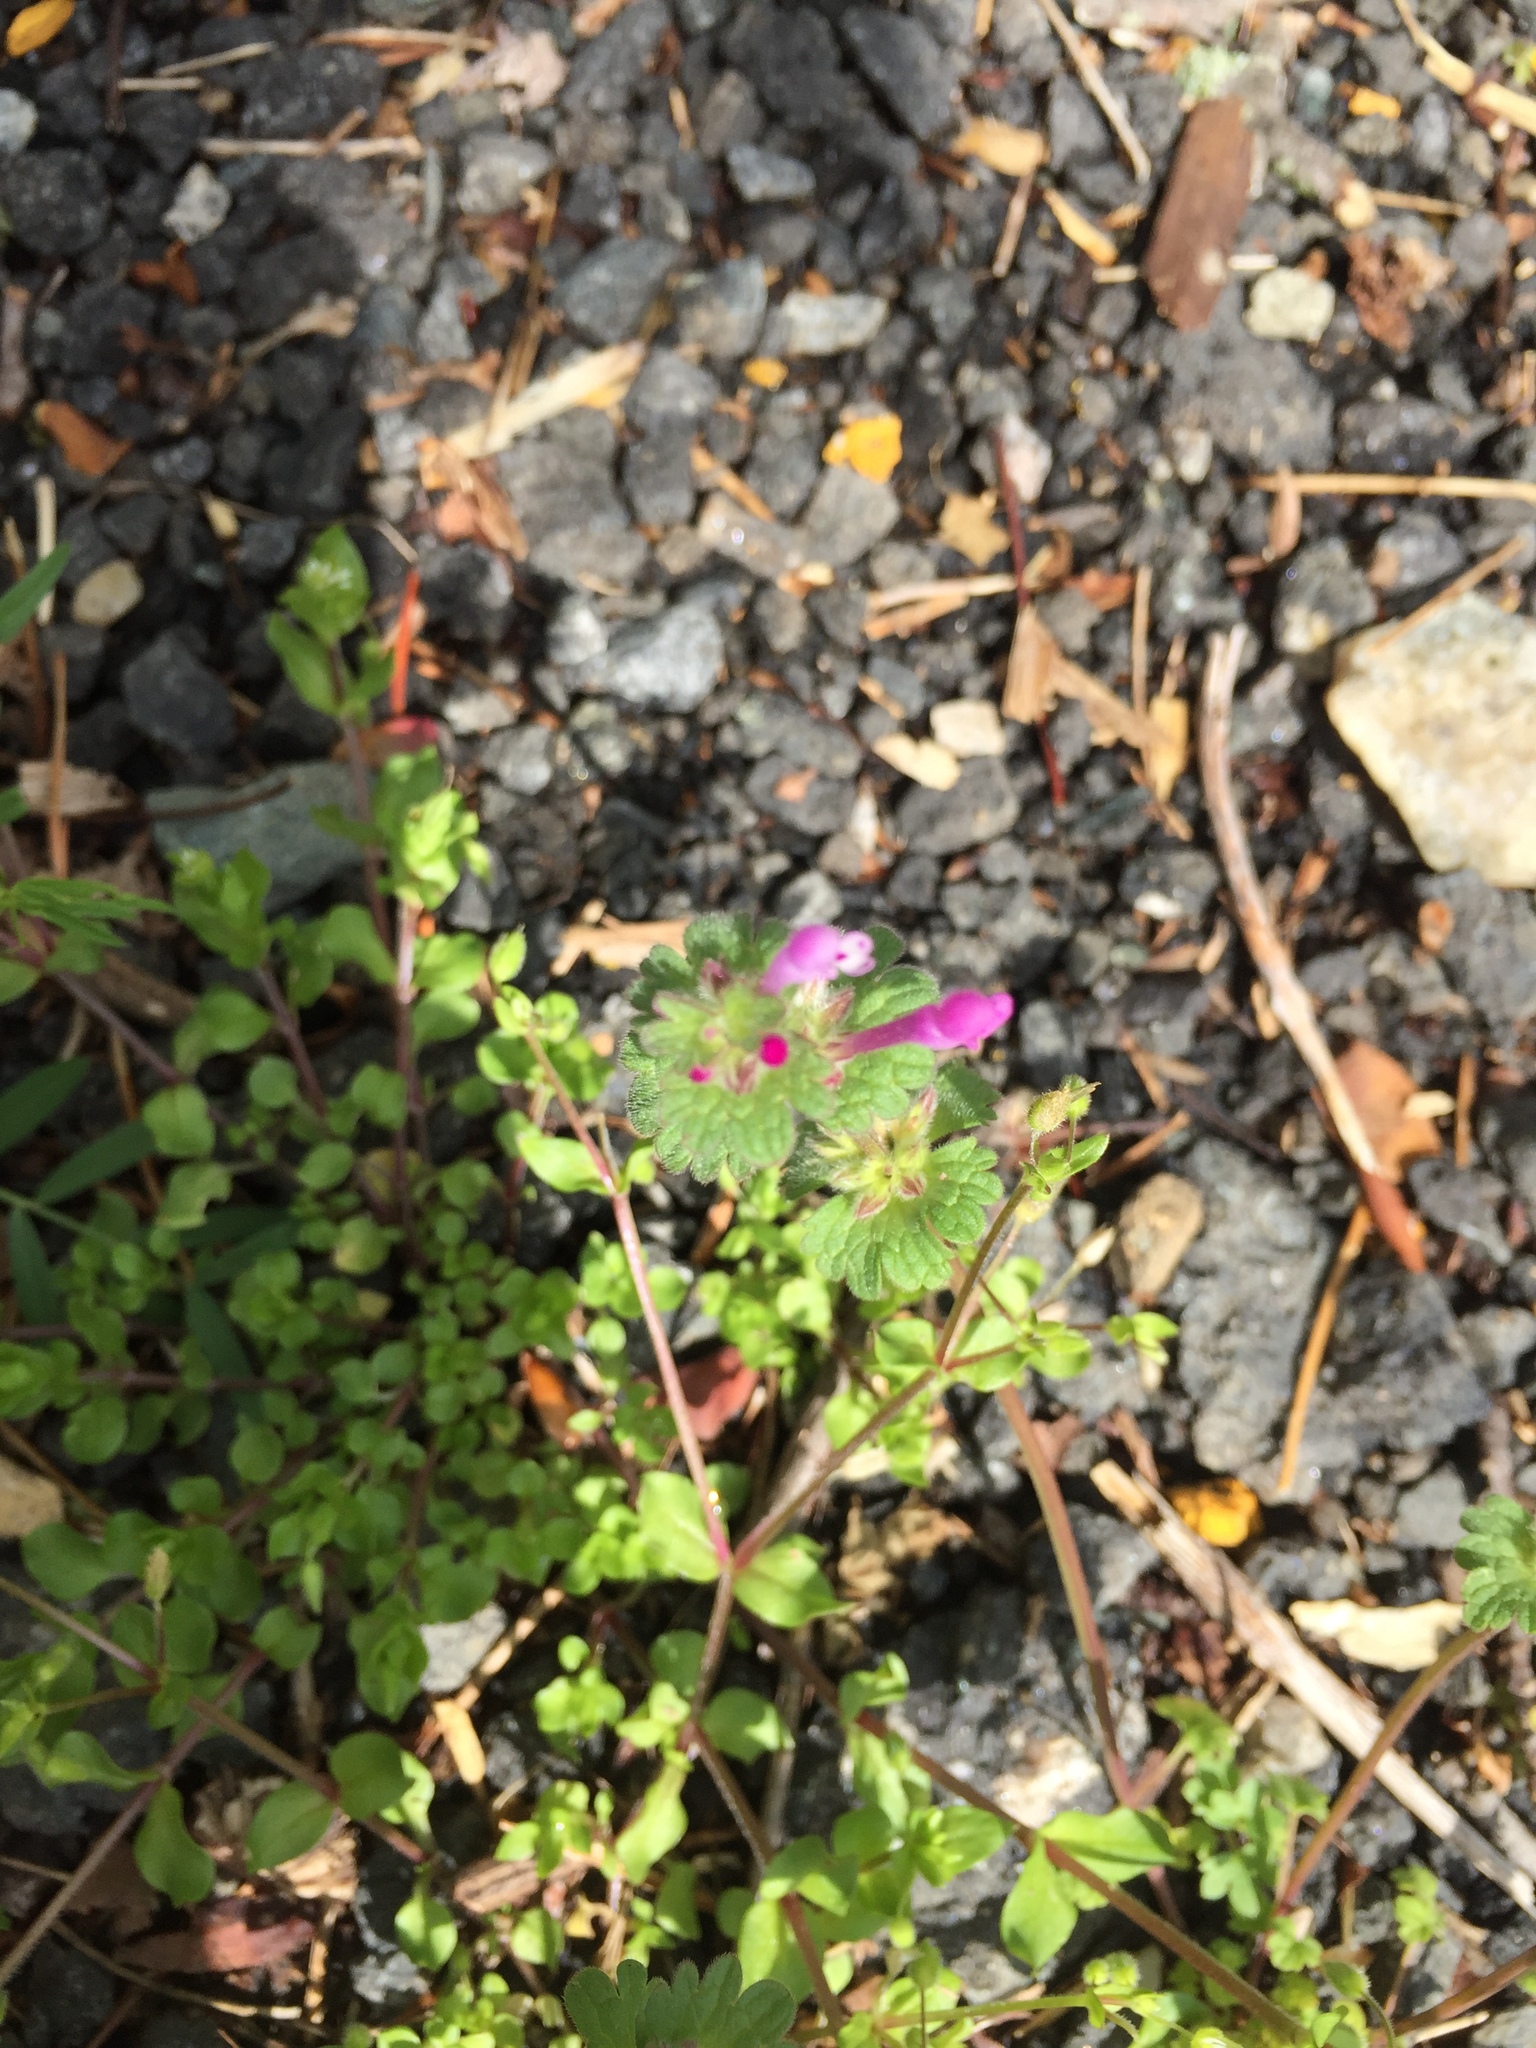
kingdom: Plantae
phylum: Tracheophyta
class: Magnoliopsida
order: Lamiales
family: Lamiaceae
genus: Lamium
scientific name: Lamium amplexicaule
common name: Henbit dead-nettle
